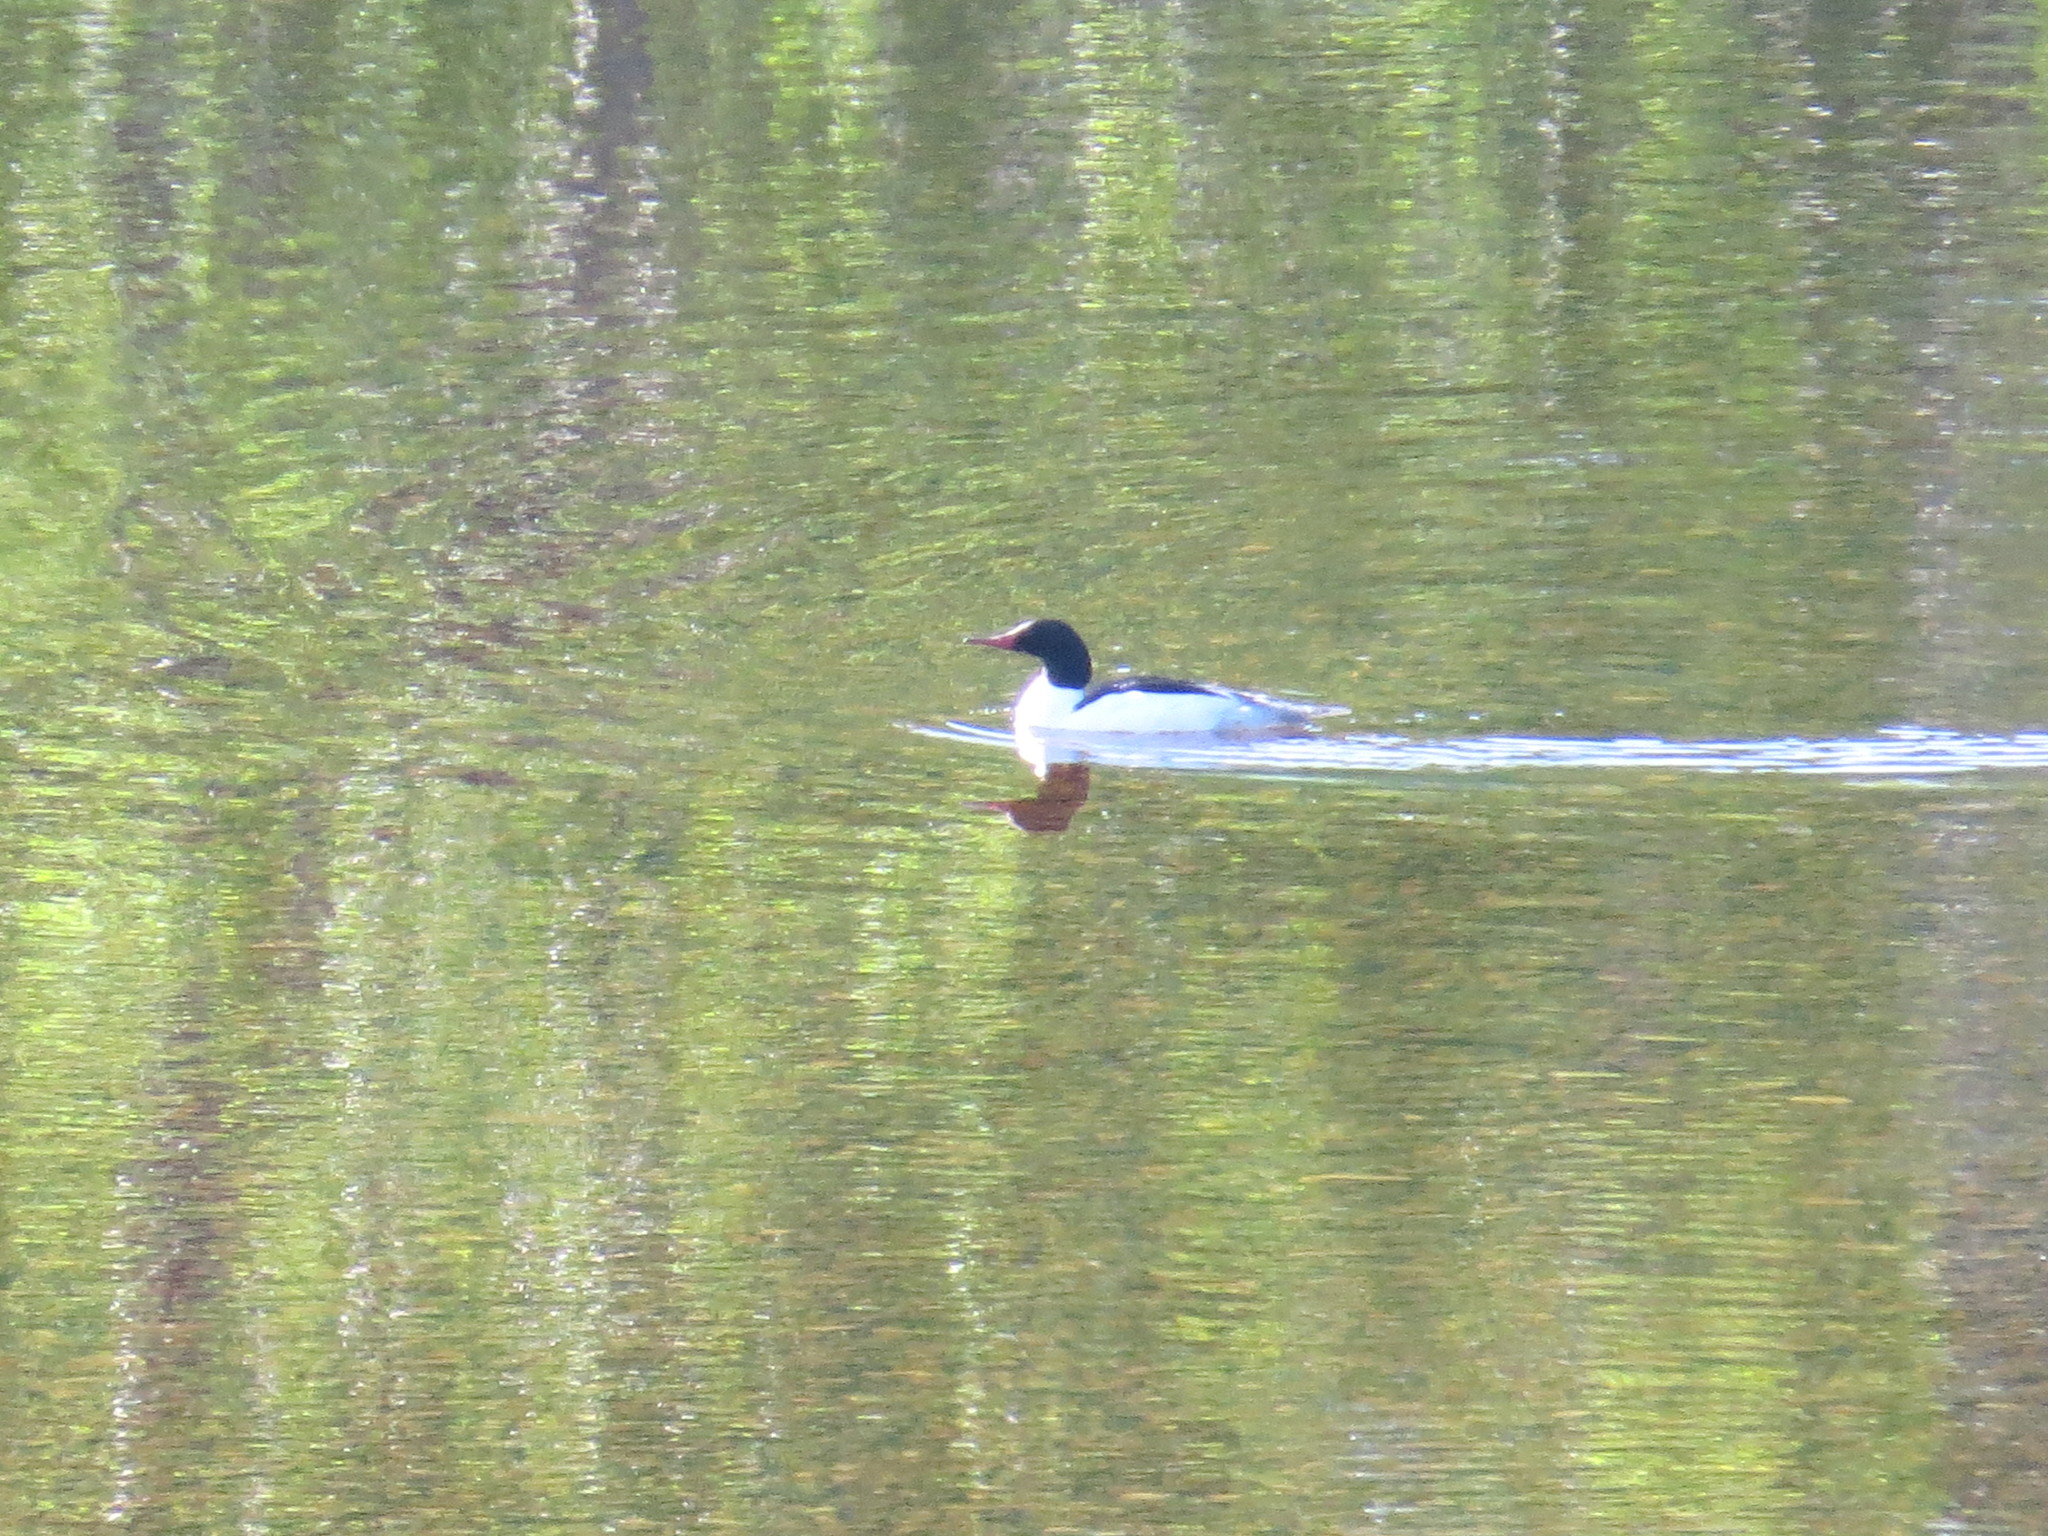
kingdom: Animalia
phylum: Chordata
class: Aves
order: Anseriformes
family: Anatidae
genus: Mergus
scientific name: Mergus merganser
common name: Common merganser
